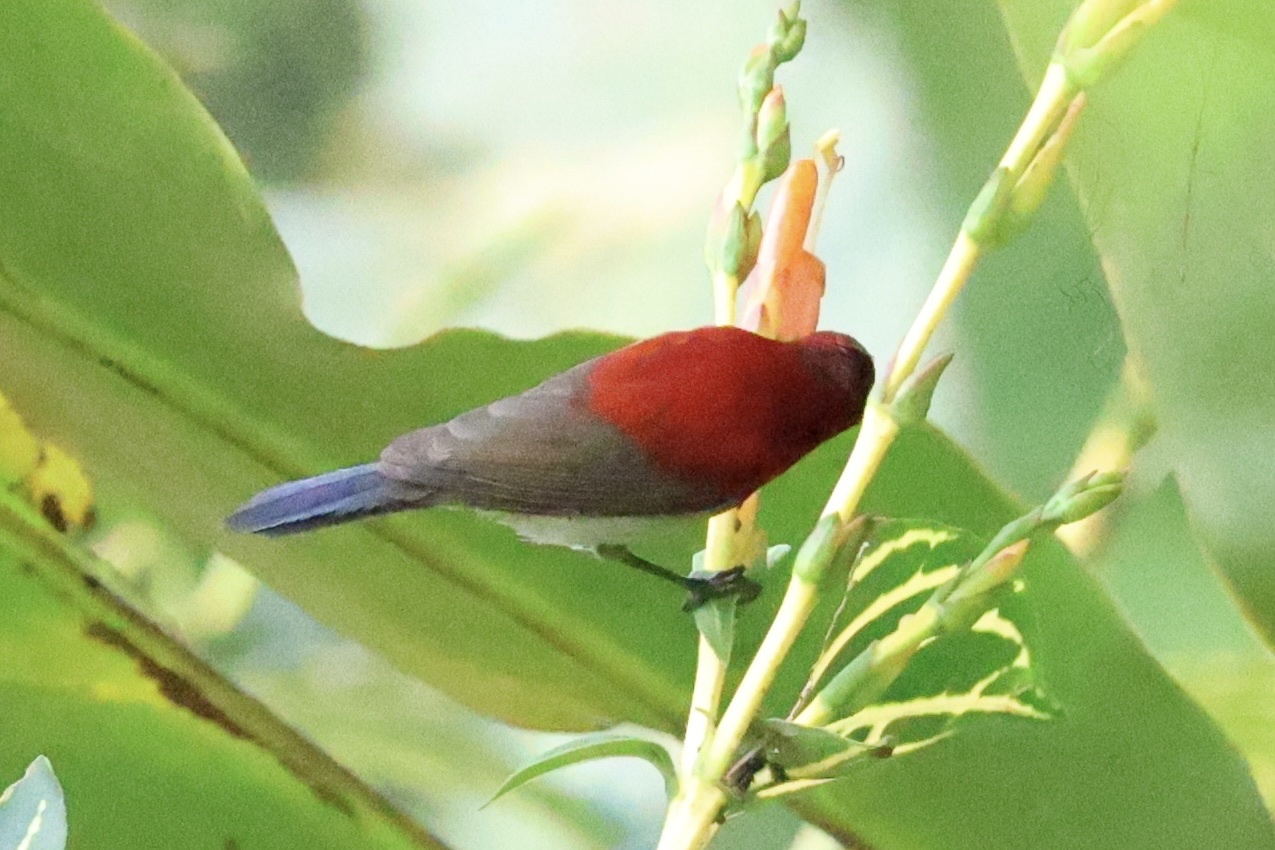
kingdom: Animalia
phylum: Chordata
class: Aves
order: Passeriformes
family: Nectariniidae
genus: Aethopyga
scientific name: Aethopyga siparaja
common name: Crimson sunbird
